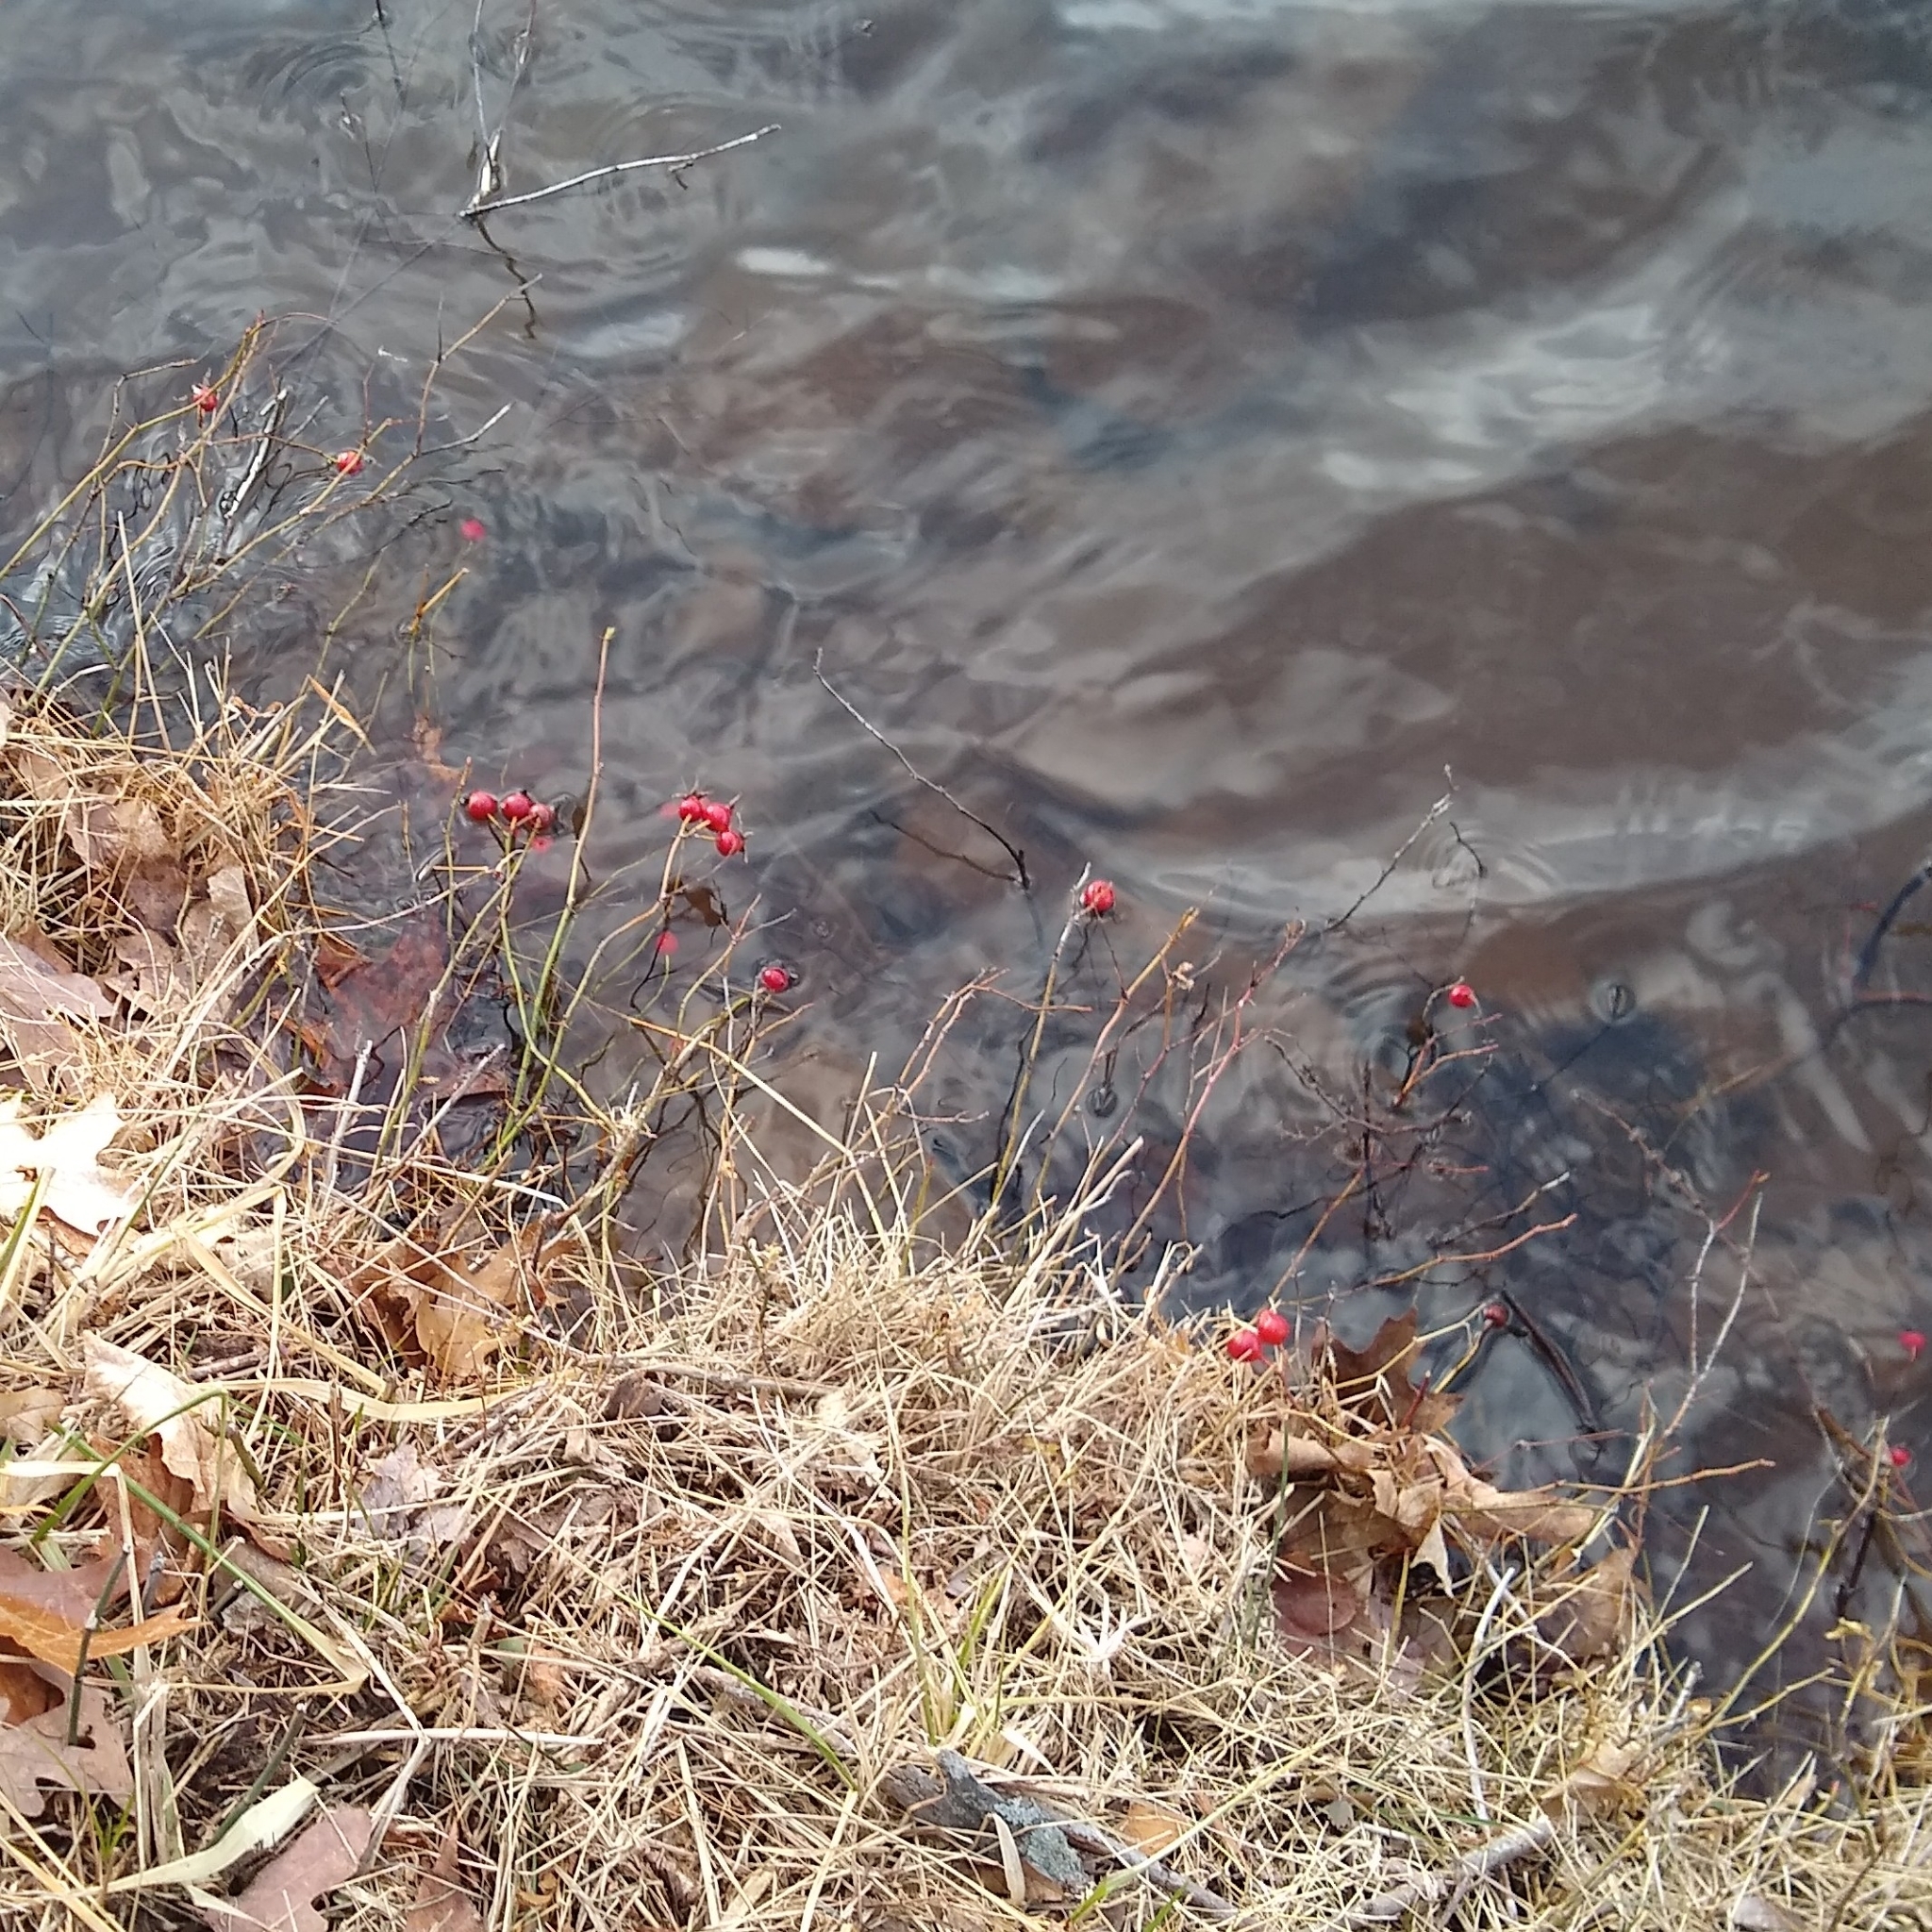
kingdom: Plantae
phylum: Tracheophyta
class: Magnoliopsida
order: Rosales
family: Rosaceae
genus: Rosa
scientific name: Rosa palustris
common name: Swamp rose
